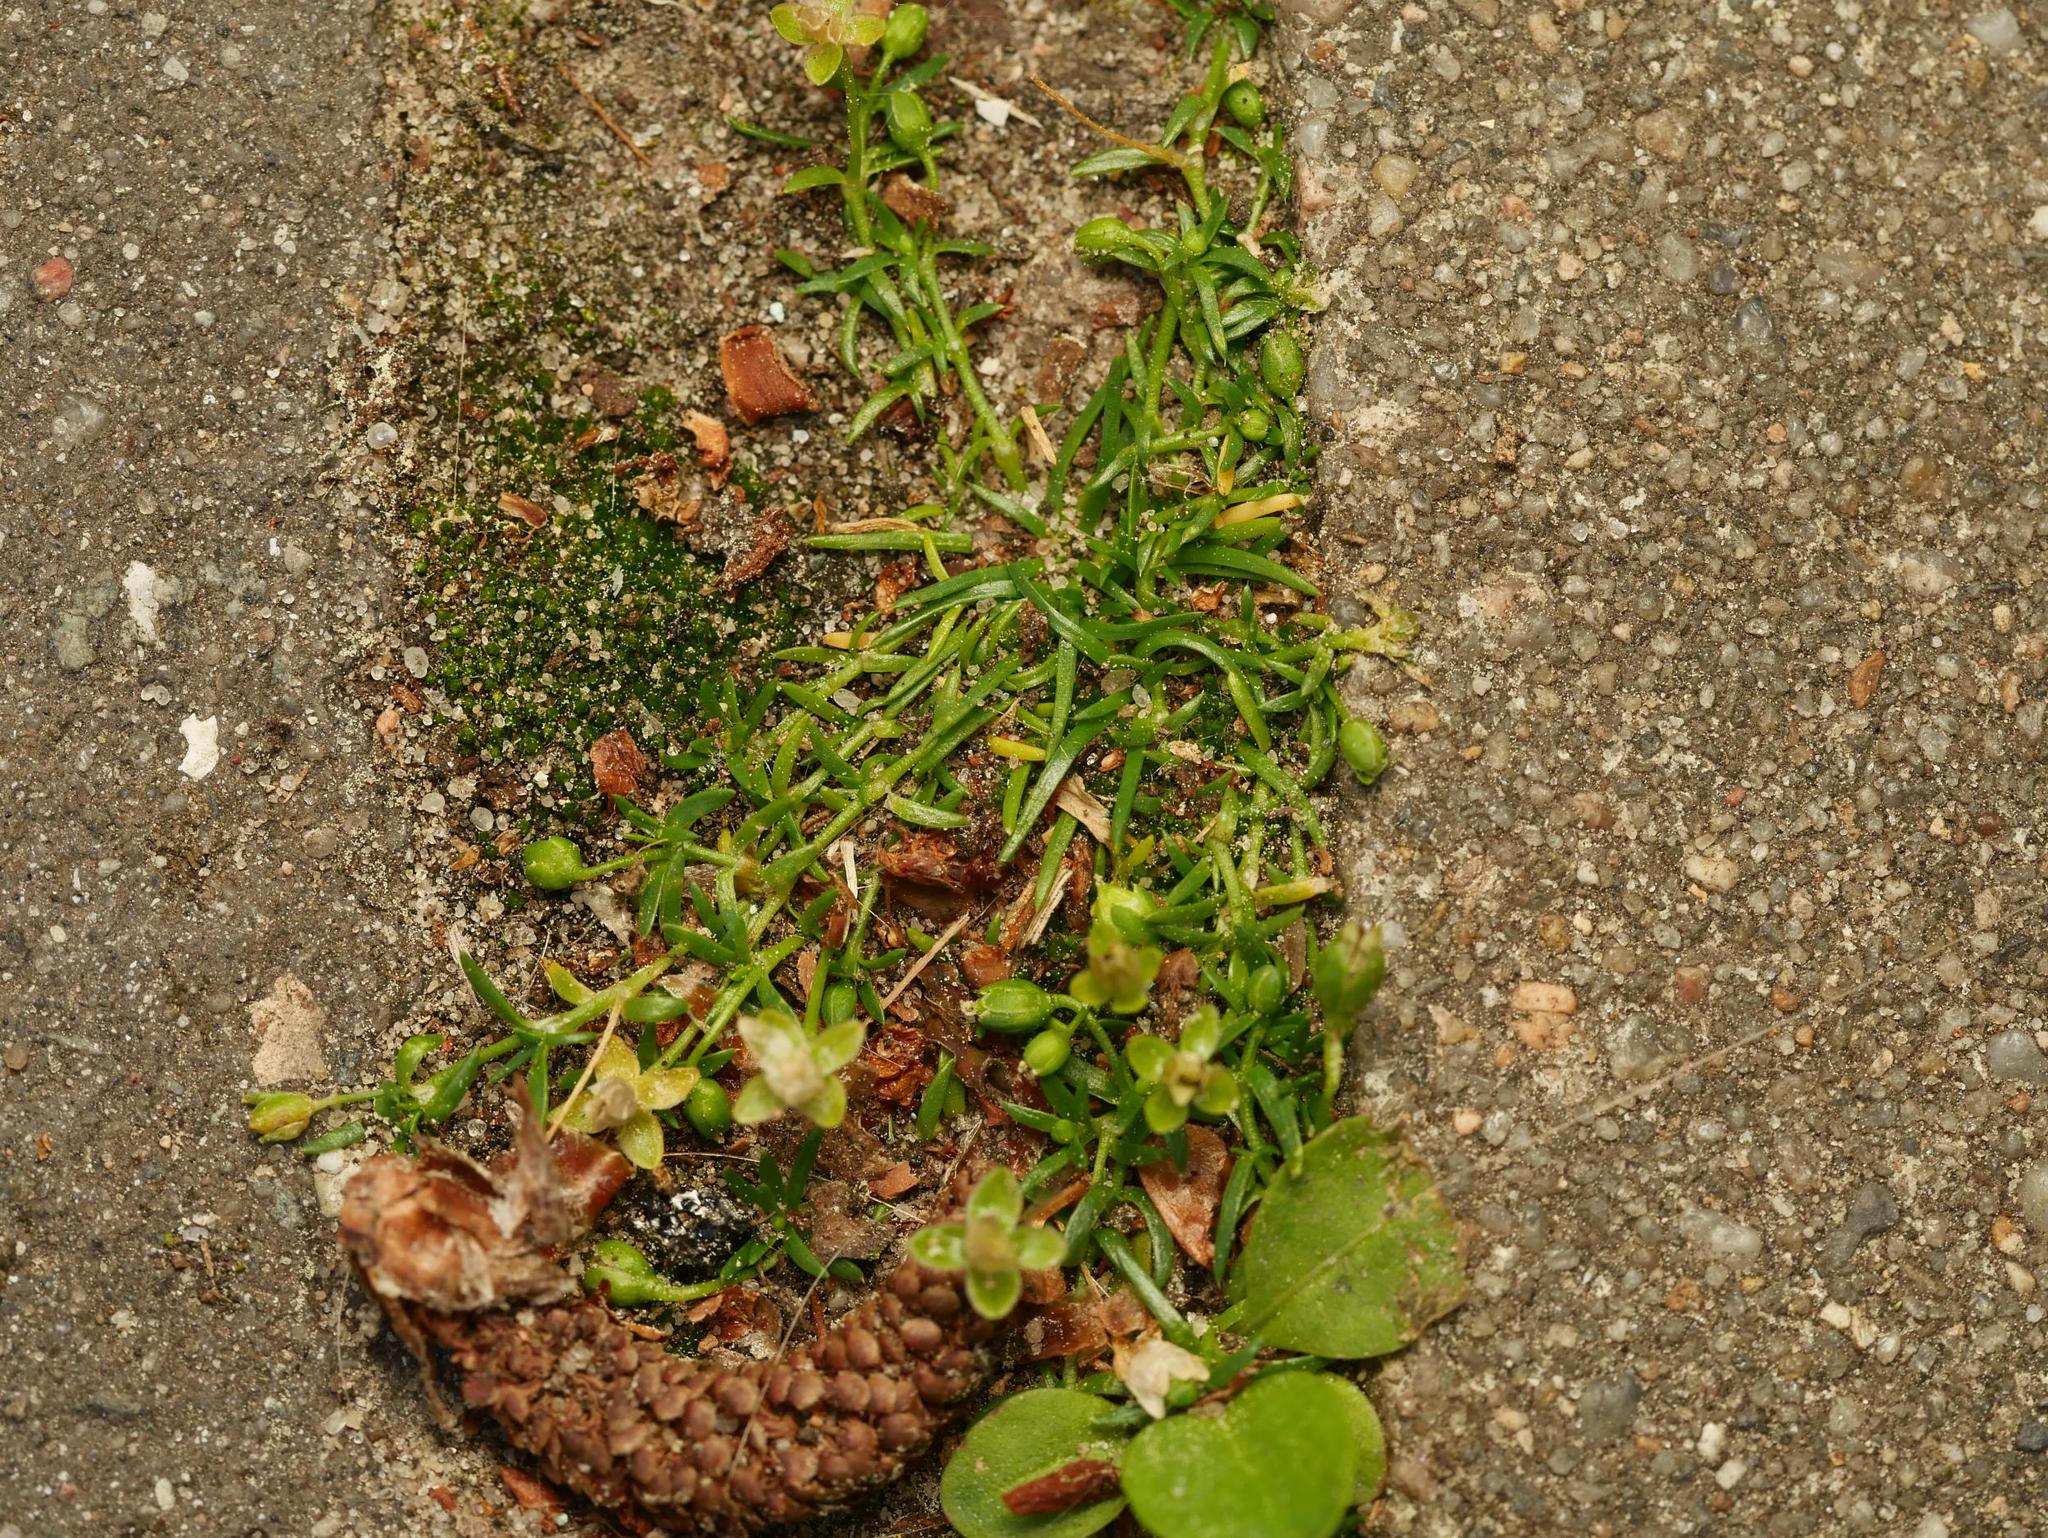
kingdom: Plantae
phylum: Tracheophyta
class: Magnoliopsida
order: Caryophyllales
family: Caryophyllaceae
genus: Sagina
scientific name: Sagina procumbens
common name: Procumbent pearlwort
